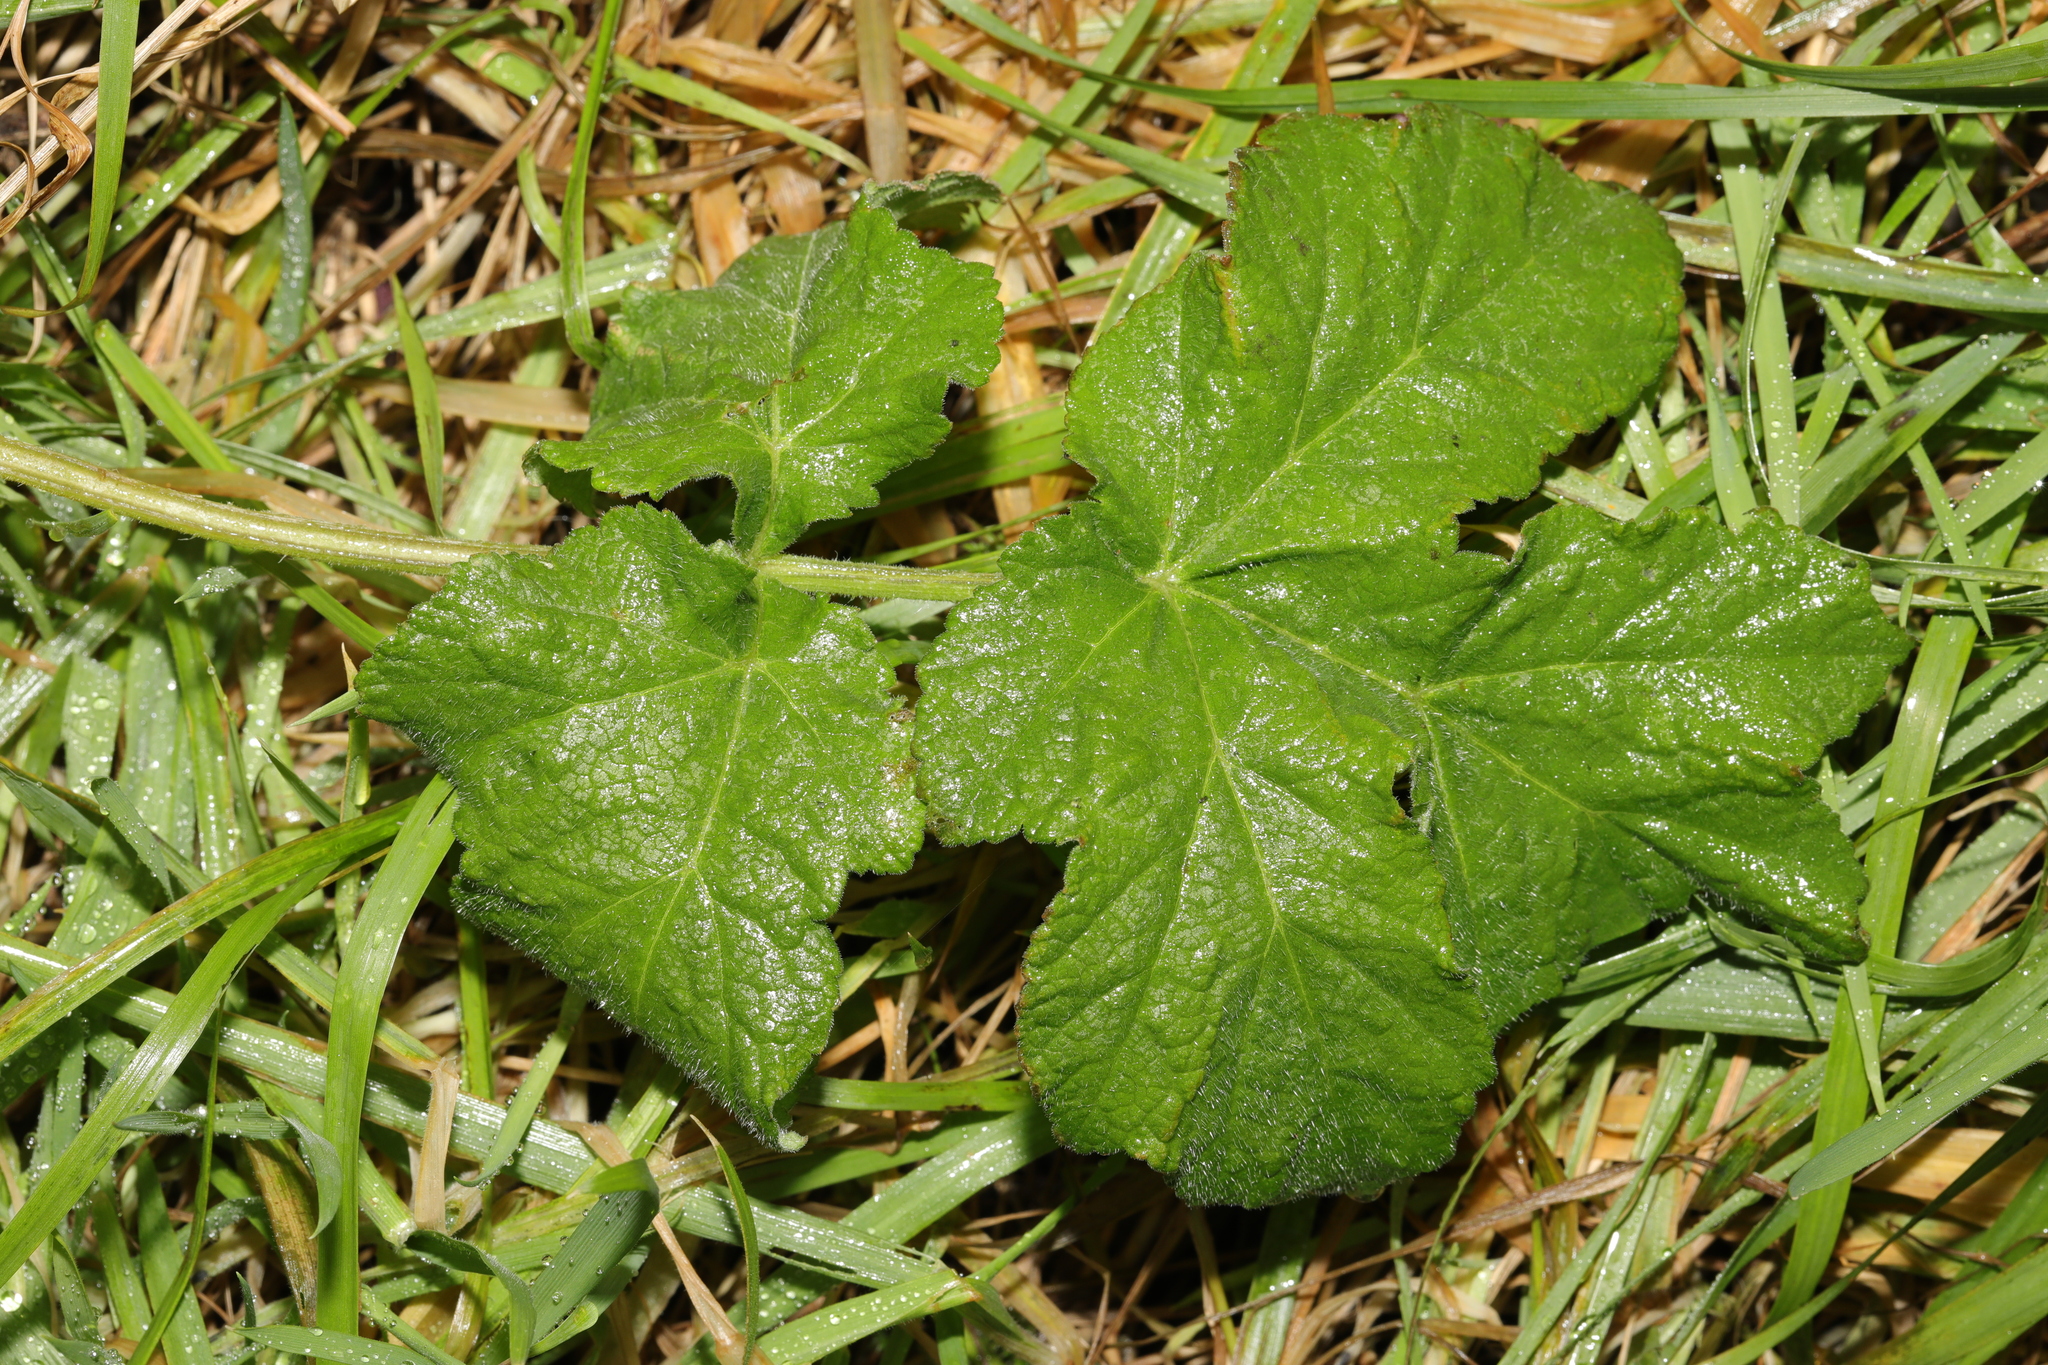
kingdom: Plantae
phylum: Tracheophyta
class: Magnoliopsida
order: Apiales
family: Apiaceae
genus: Heracleum
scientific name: Heracleum sphondylium
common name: Hogweed
